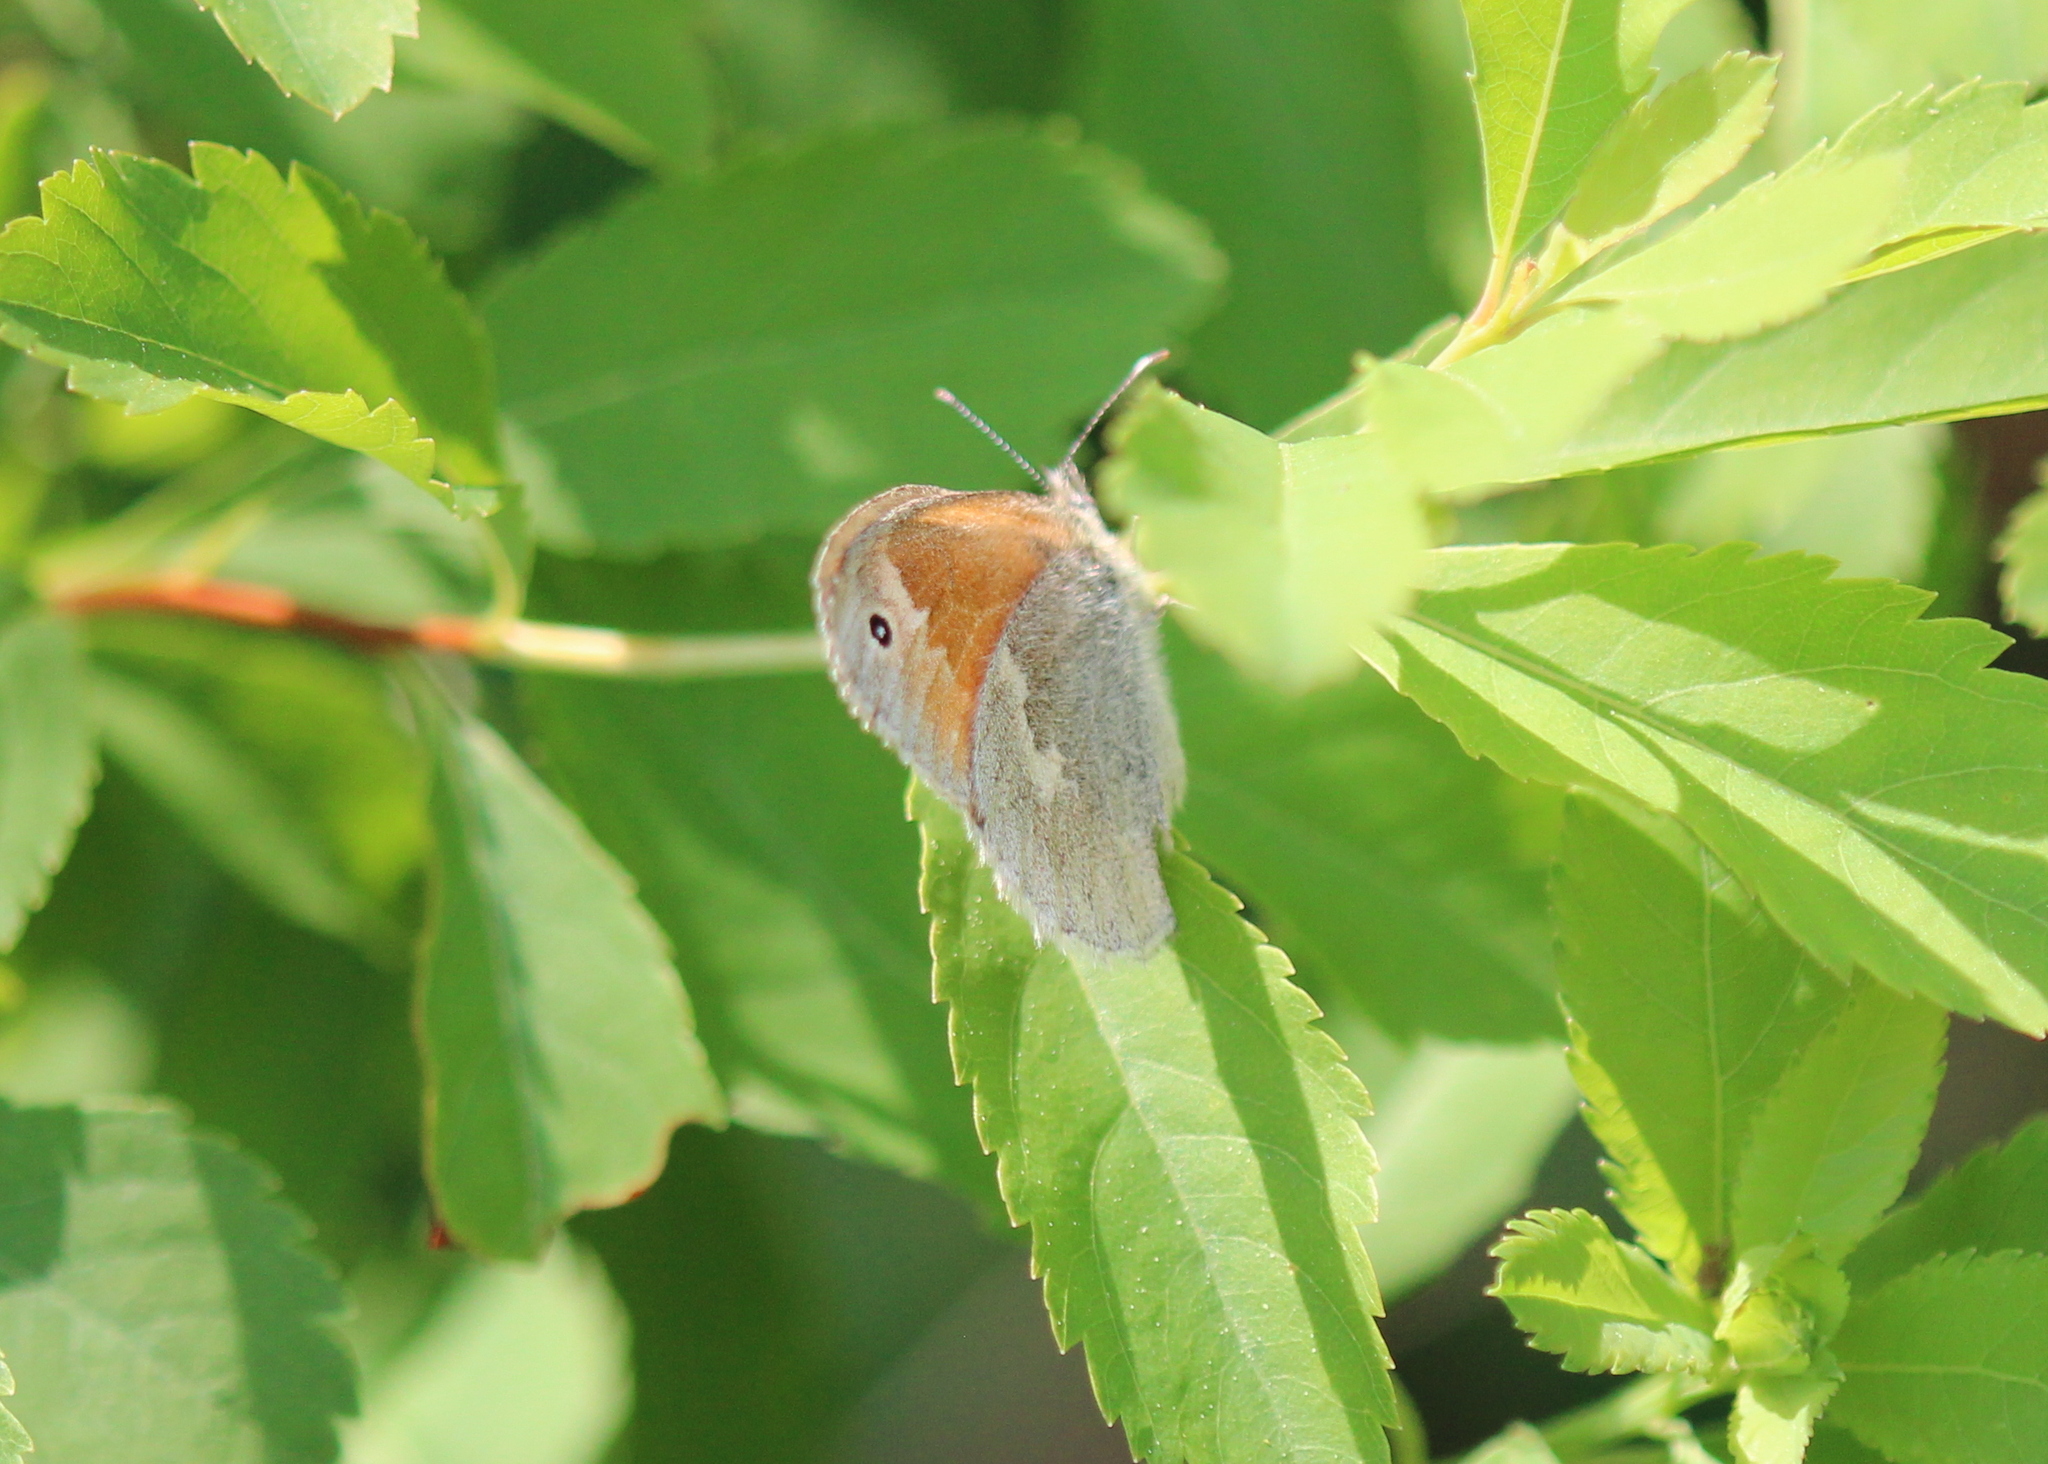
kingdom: Animalia
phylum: Arthropoda
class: Insecta
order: Lepidoptera
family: Nymphalidae
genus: Coenonympha
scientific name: Coenonympha california
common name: Common ringlet
